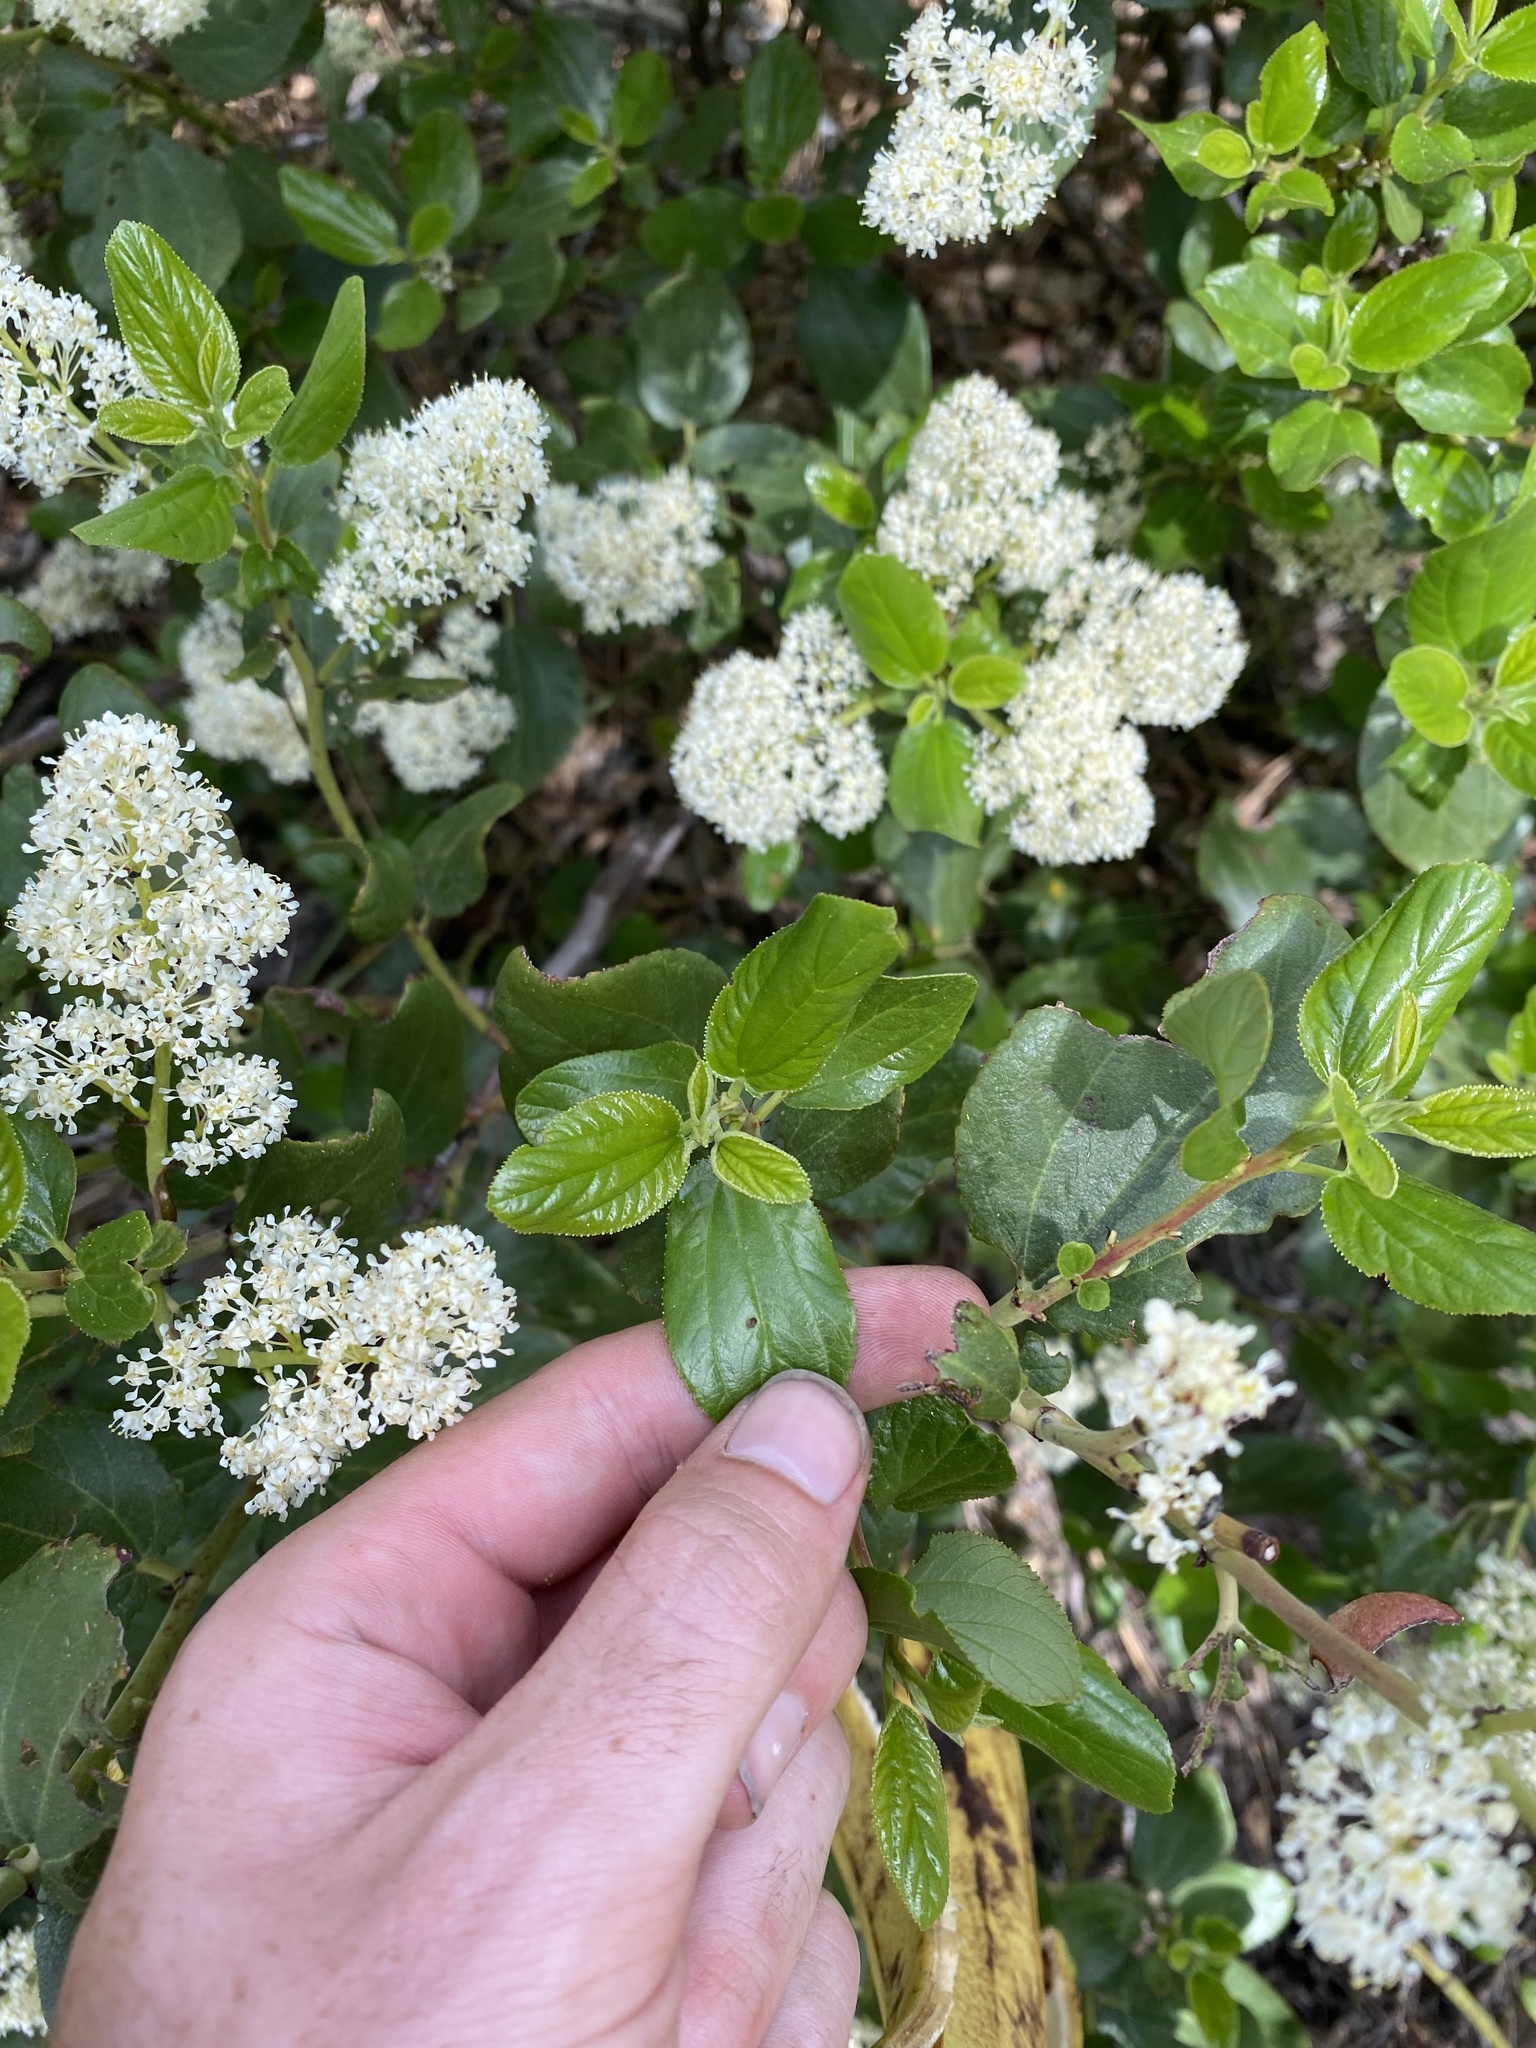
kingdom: Plantae
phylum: Tracheophyta
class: Magnoliopsida
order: Rosales
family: Rhamnaceae
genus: Ceanothus
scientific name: Ceanothus velutinus
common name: Snowbrush
